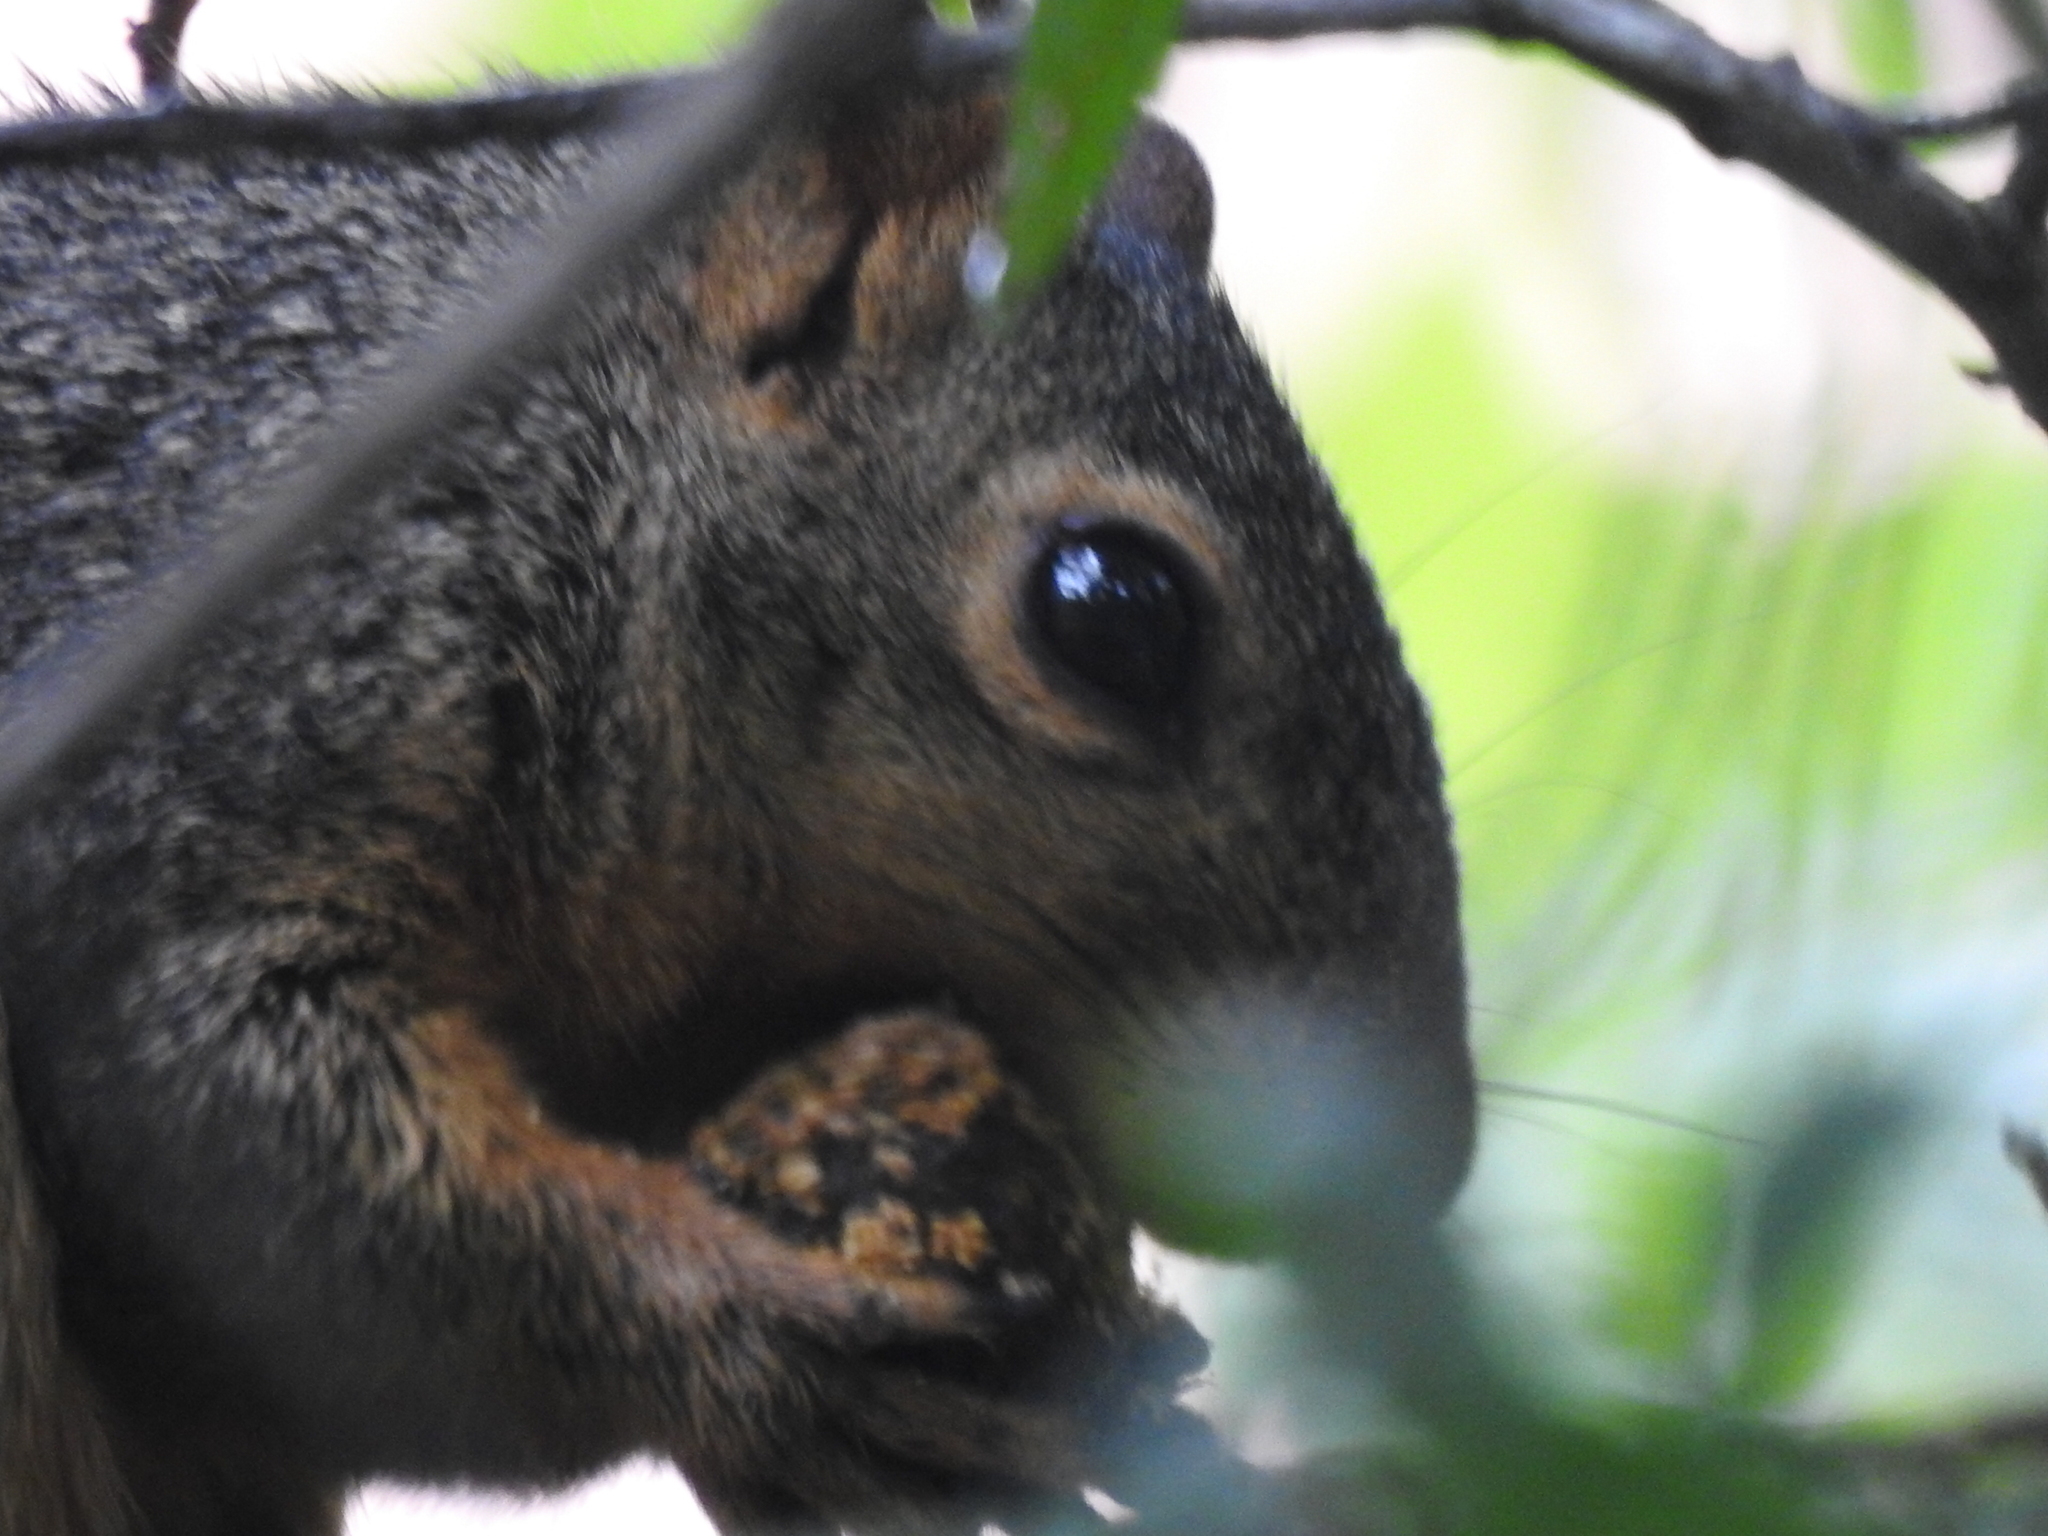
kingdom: Animalia
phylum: Chordata
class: Mammalia
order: Rodentia
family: Sciuridae
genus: Sciurus
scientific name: Sciurus niger
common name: Fox squirrel
